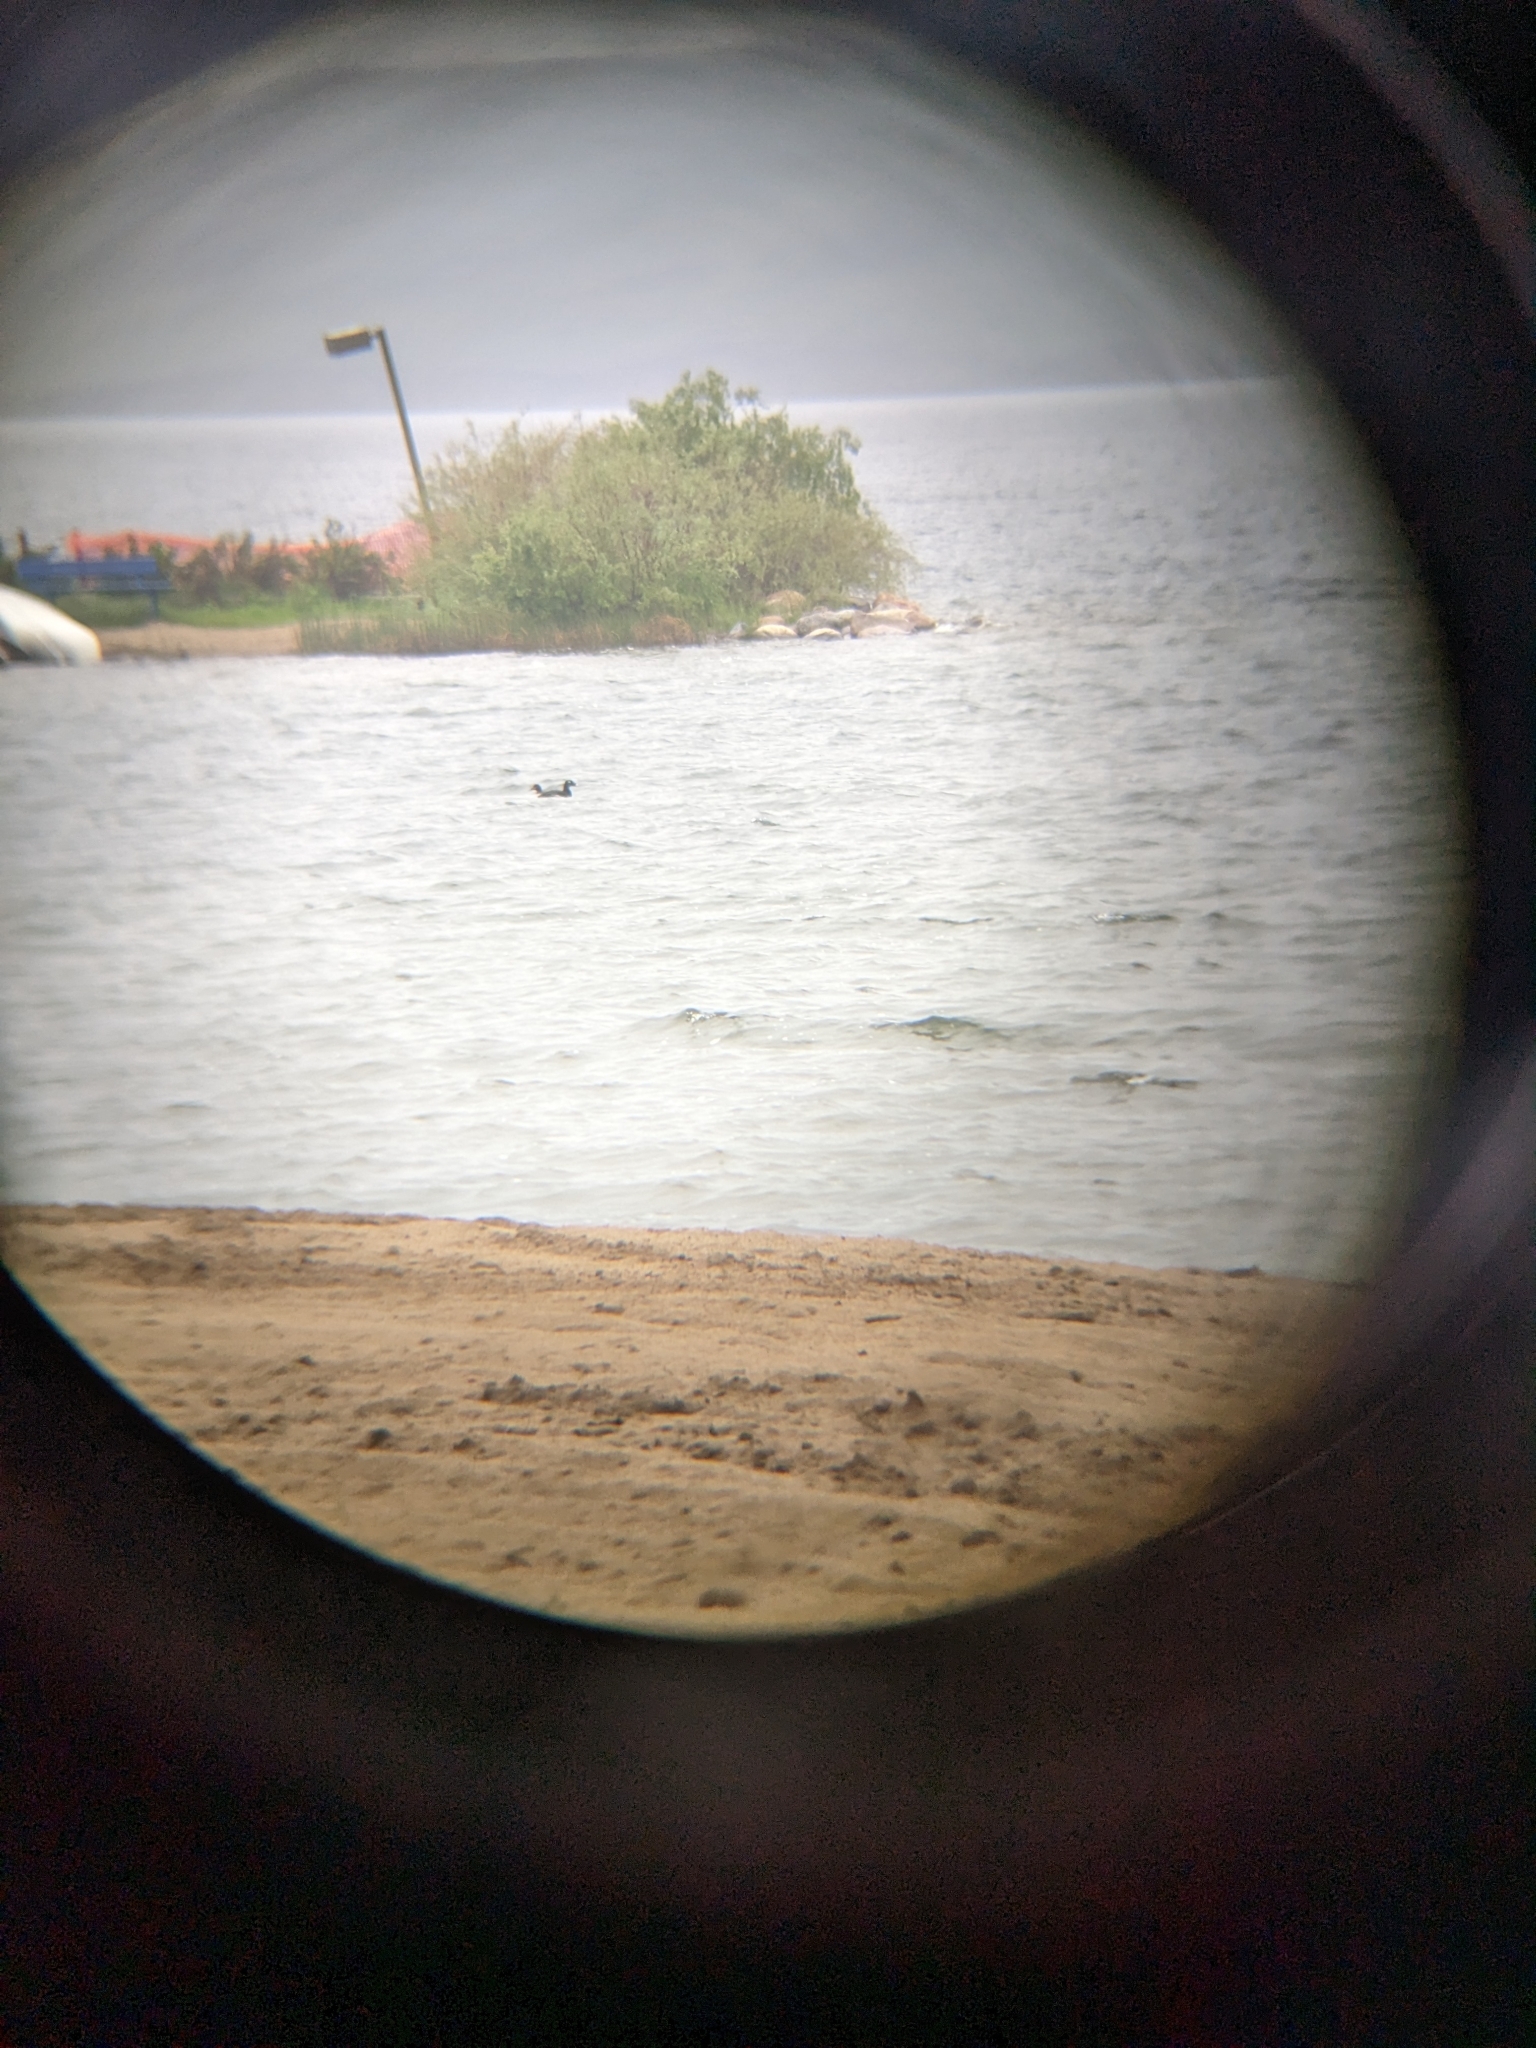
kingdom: Animalia
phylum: Chordata
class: Aves
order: Anseriformes
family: Anatidae
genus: Melanitta
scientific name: Melanitta deglandi
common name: White-winged scoter
